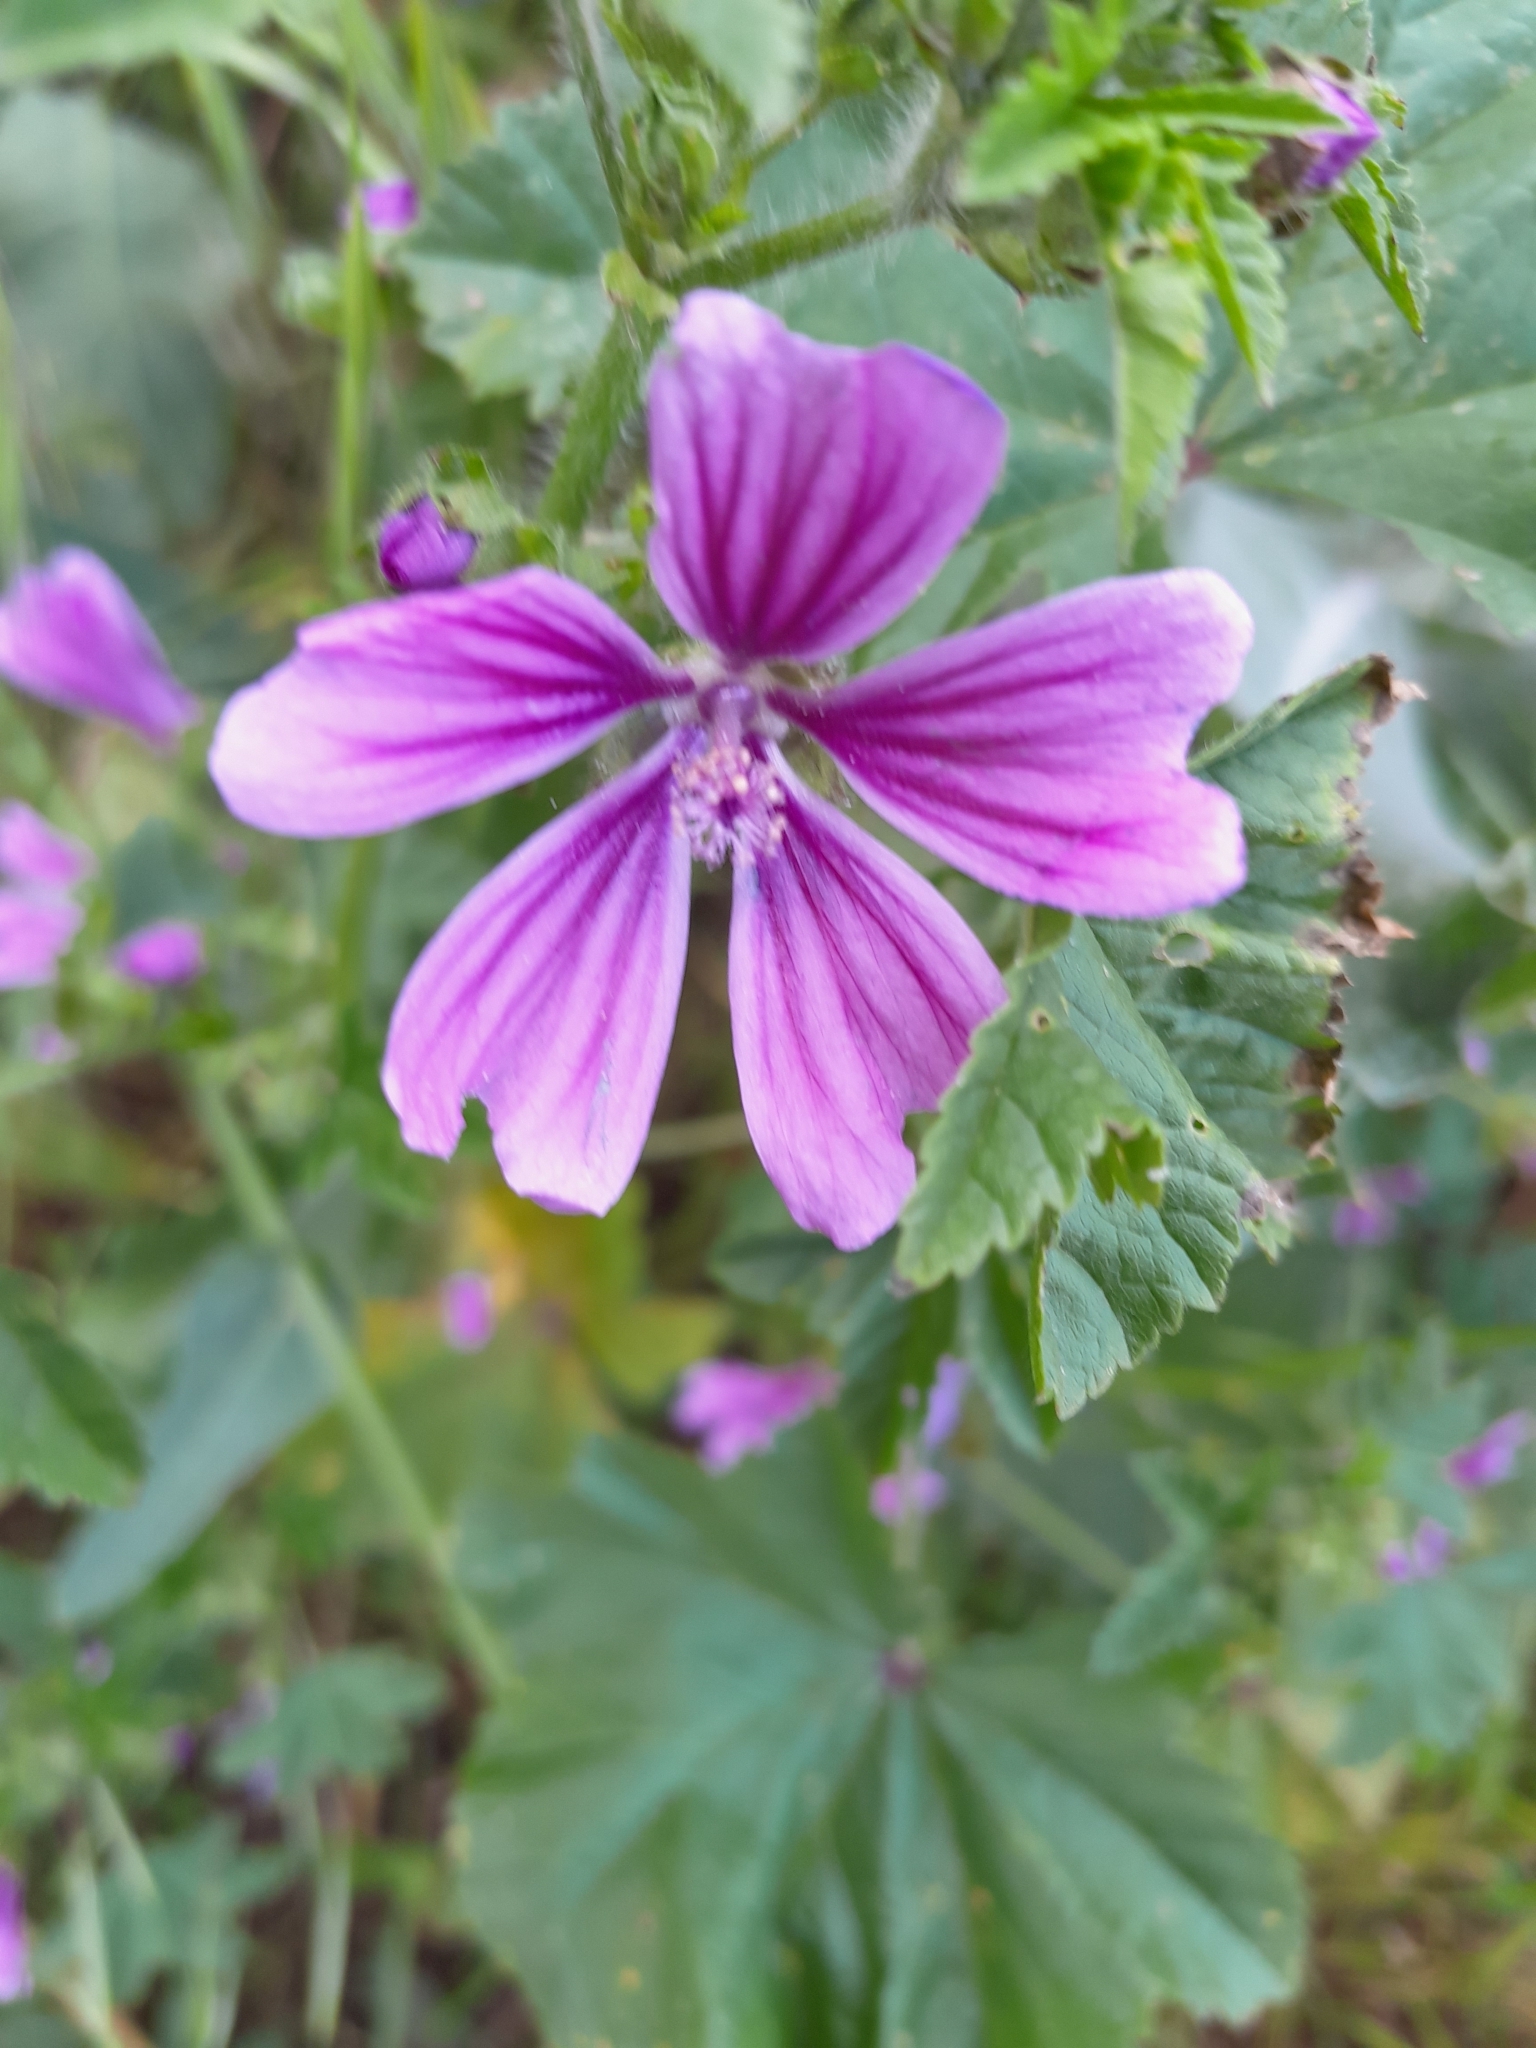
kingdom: Plantae
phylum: Tracheophyta
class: Magnoliopsida
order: Malvales
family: Malvaceae
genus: Malva
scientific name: Malva sylvestris
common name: Common mallow
